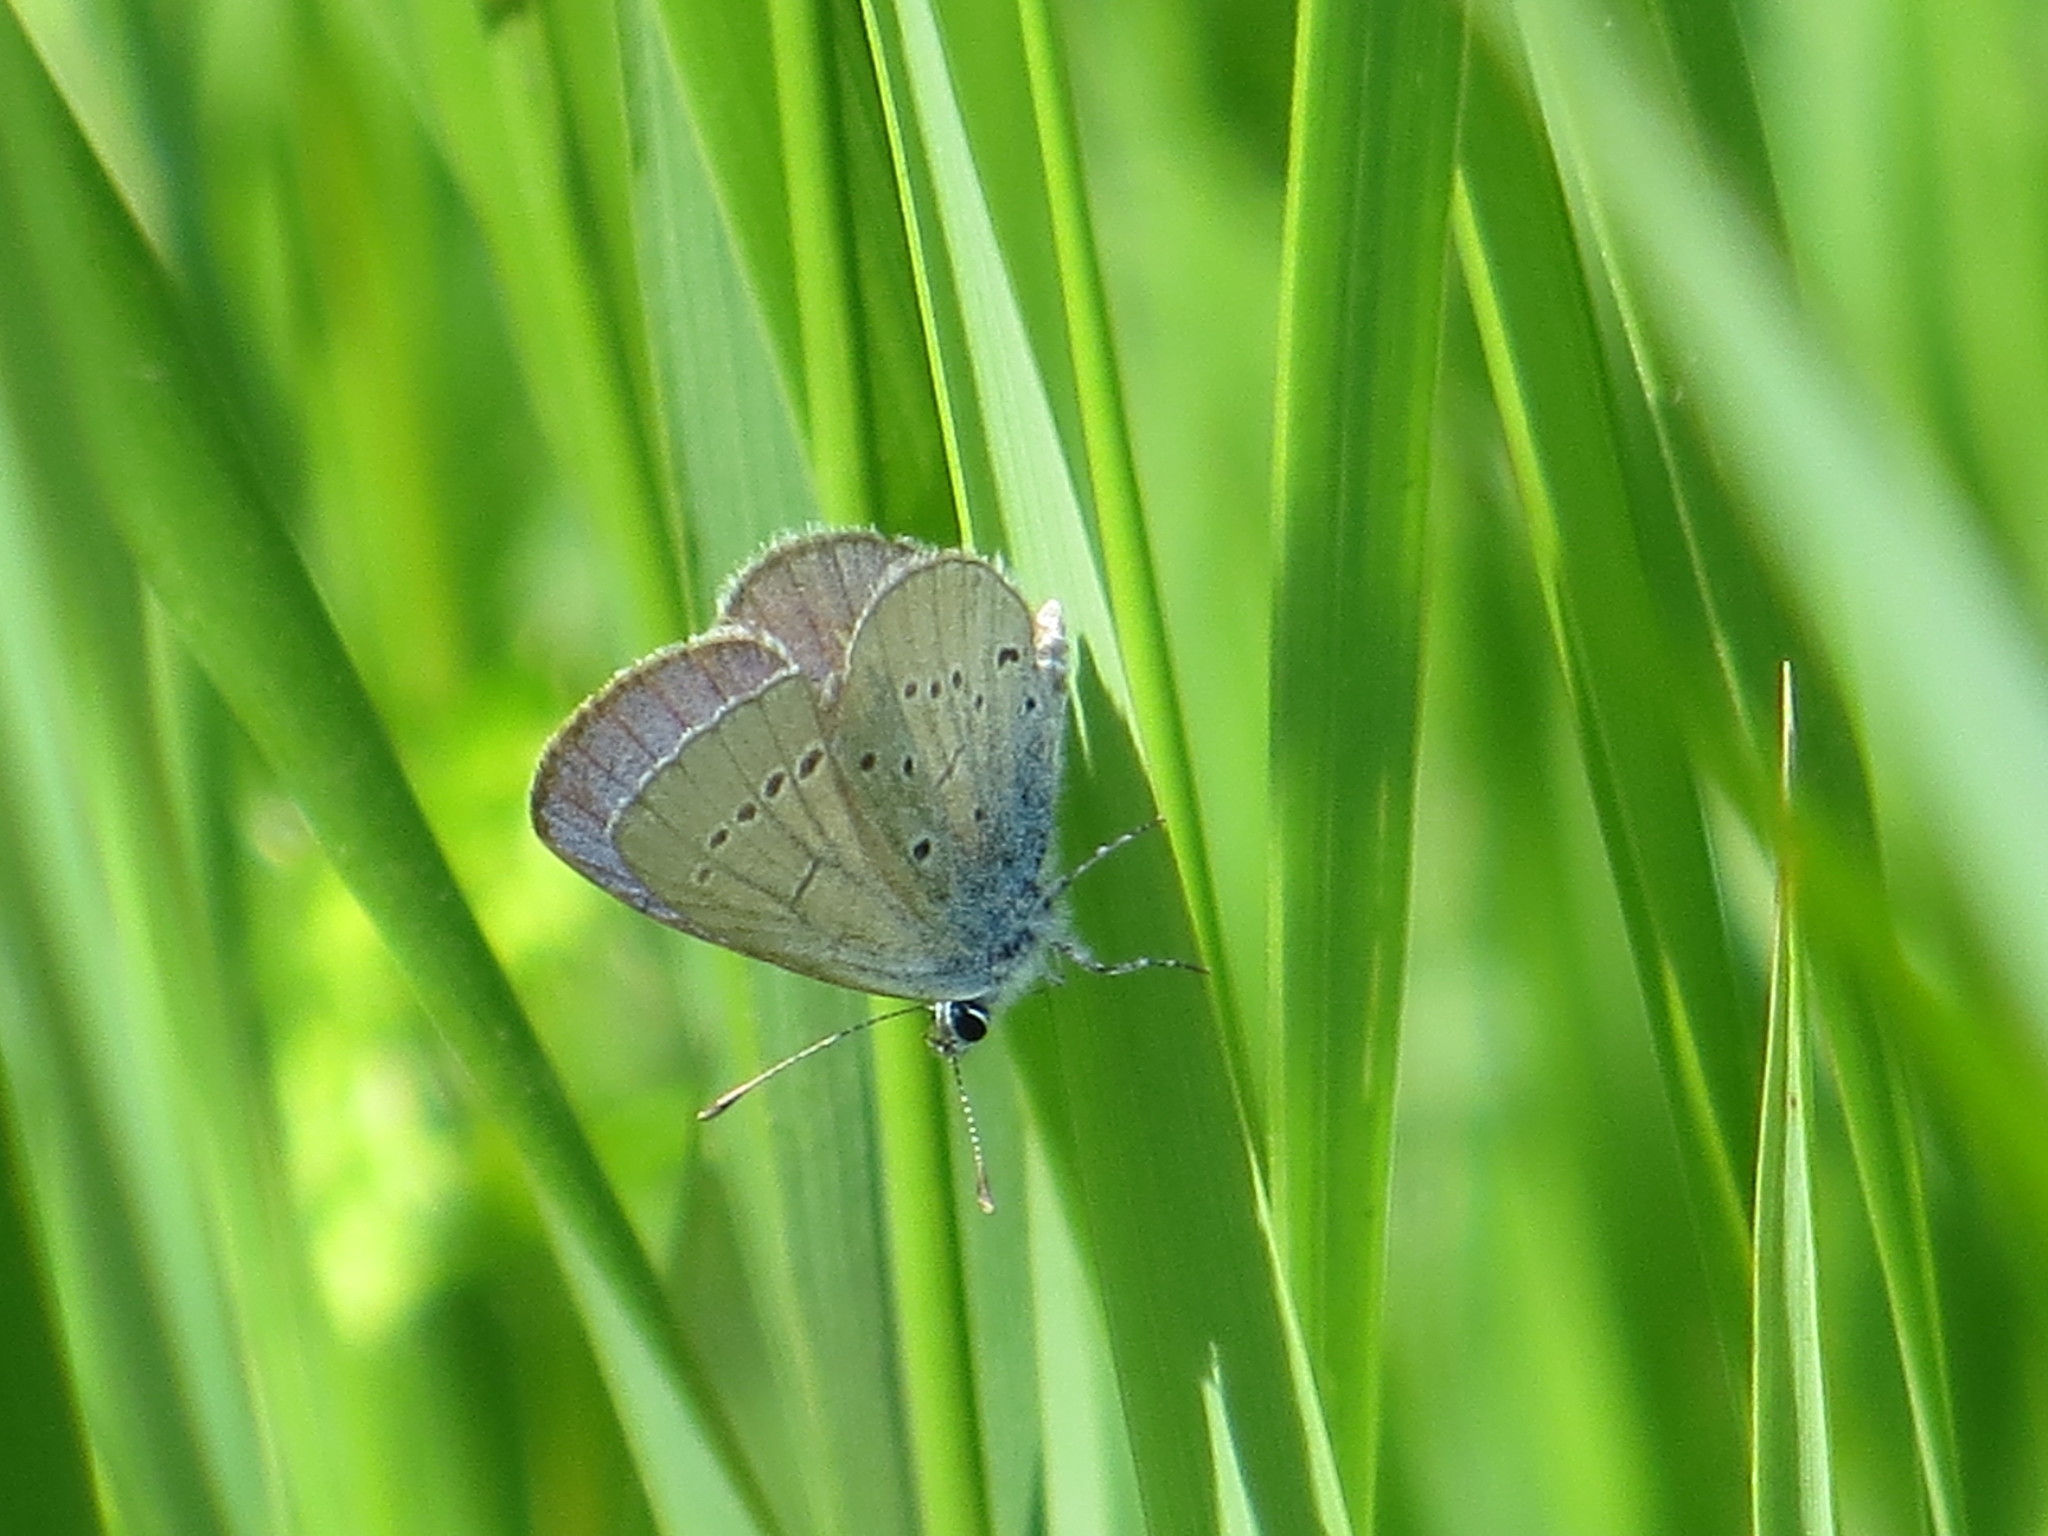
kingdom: Animalia
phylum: Arthropoda
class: Insecta
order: Lepidoptera
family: Lycaenidae
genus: Everes
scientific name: Everes sebrus
